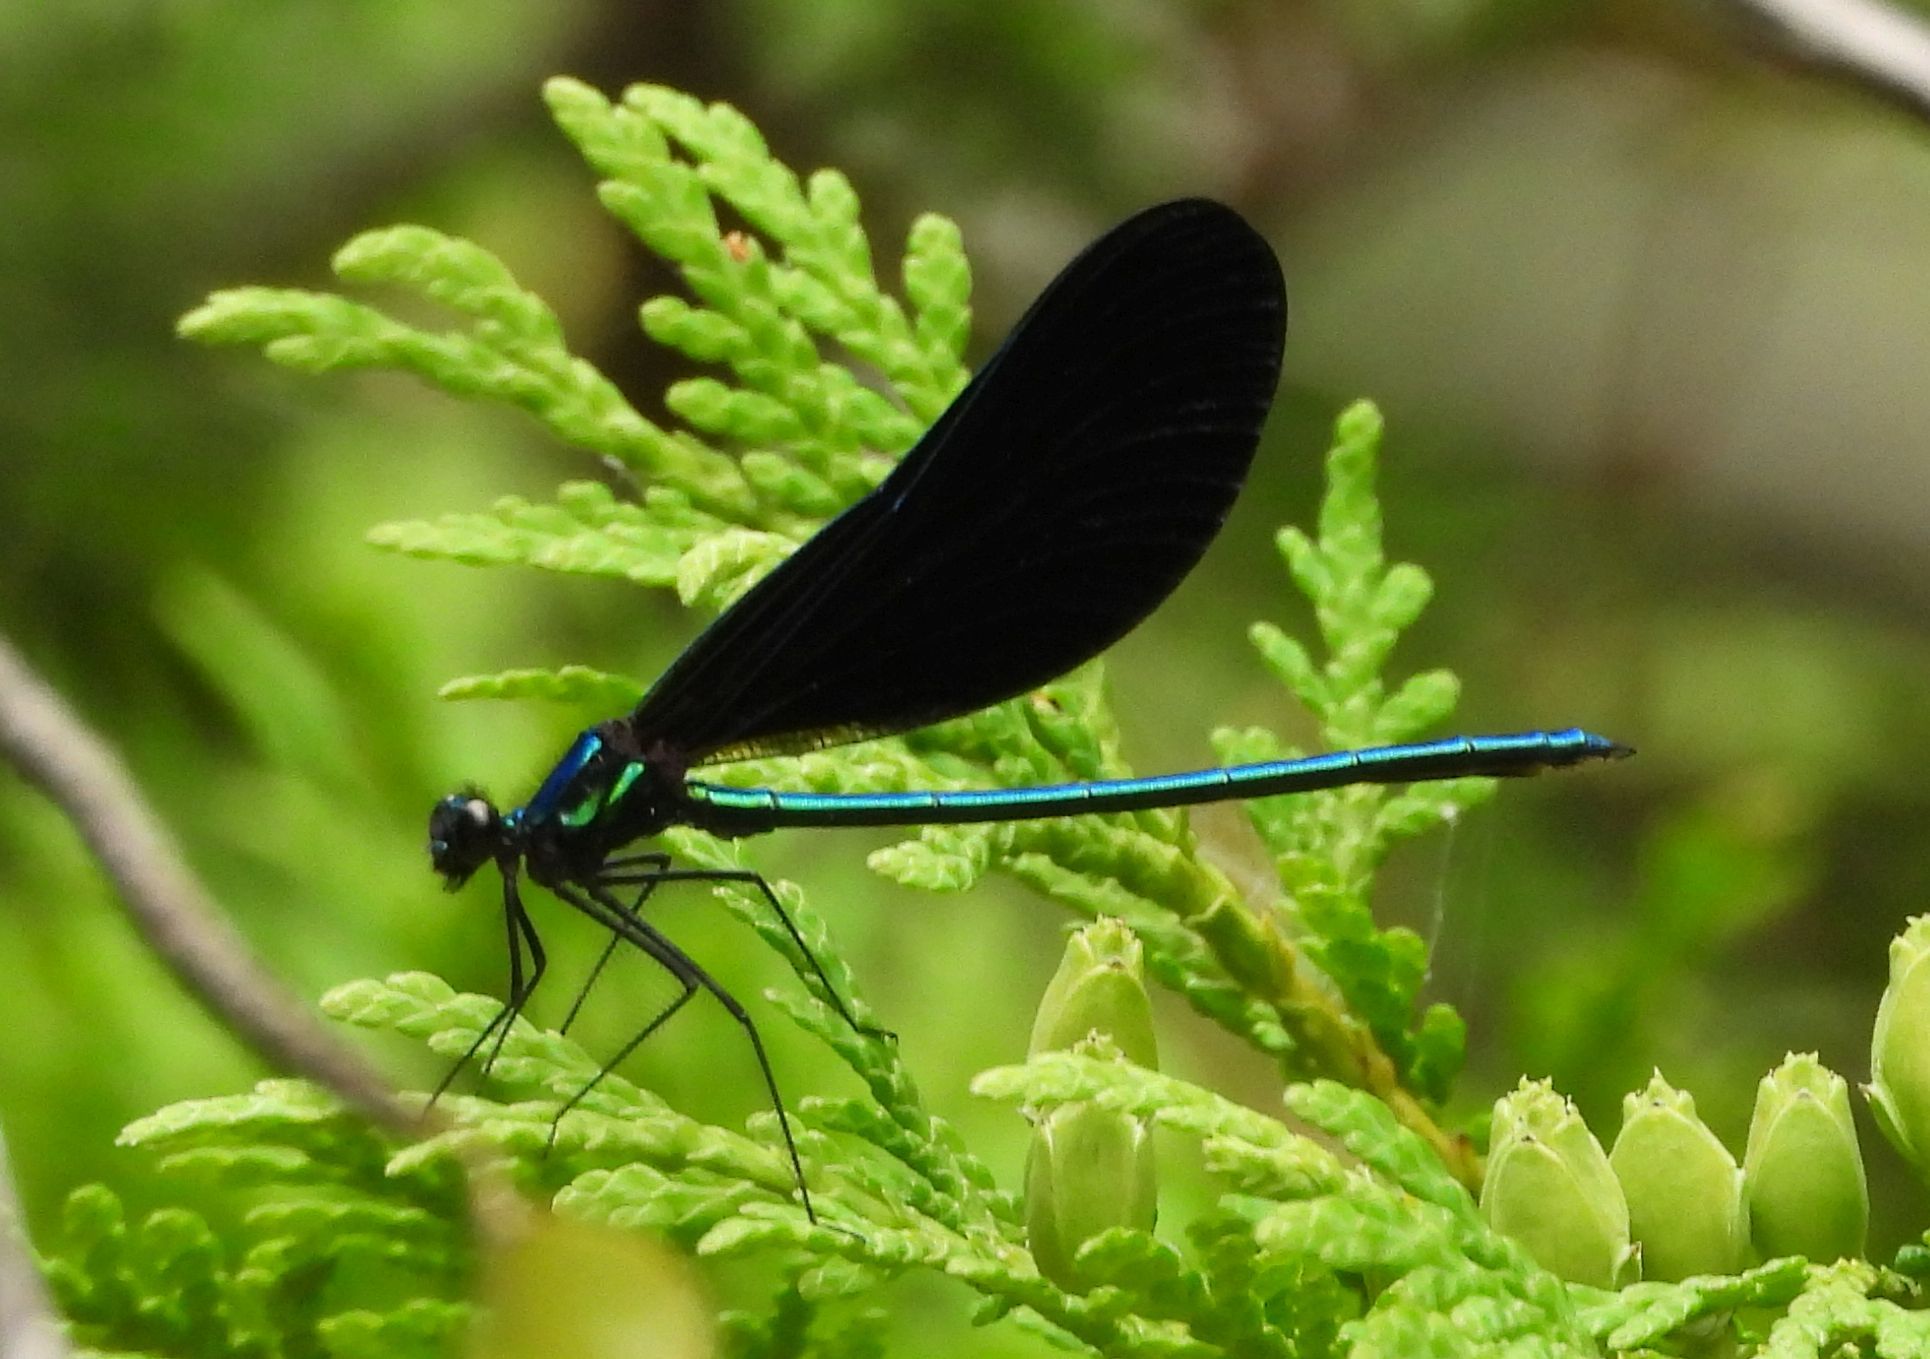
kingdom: Animalia
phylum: Arthropoda
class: Insecta
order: Odonata
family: Calopterygidae
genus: Calopteryx
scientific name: Calopteryx maculata
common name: Ebony jewelwing
